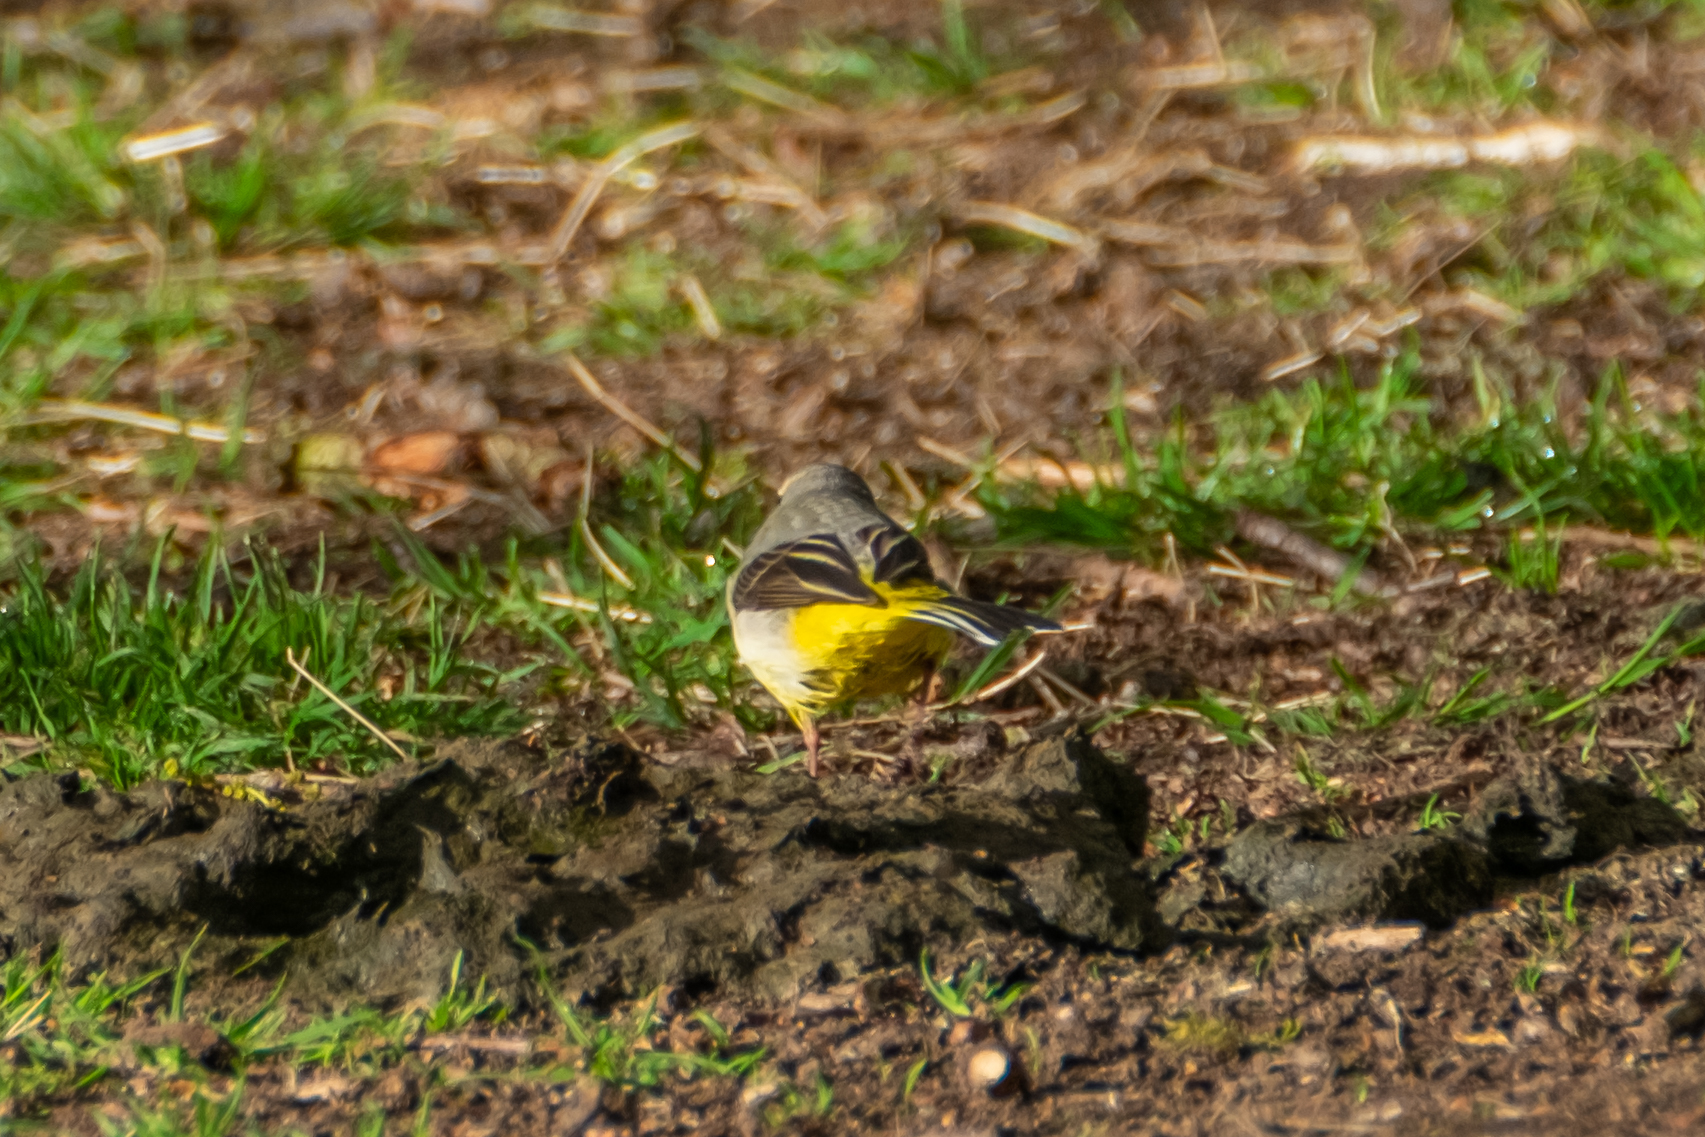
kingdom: Animalia
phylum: Chordata
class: Aves
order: Passeriformes
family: Motacillidae
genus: Motacilla
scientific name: Motacilla cinerea
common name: Grey wagtail
